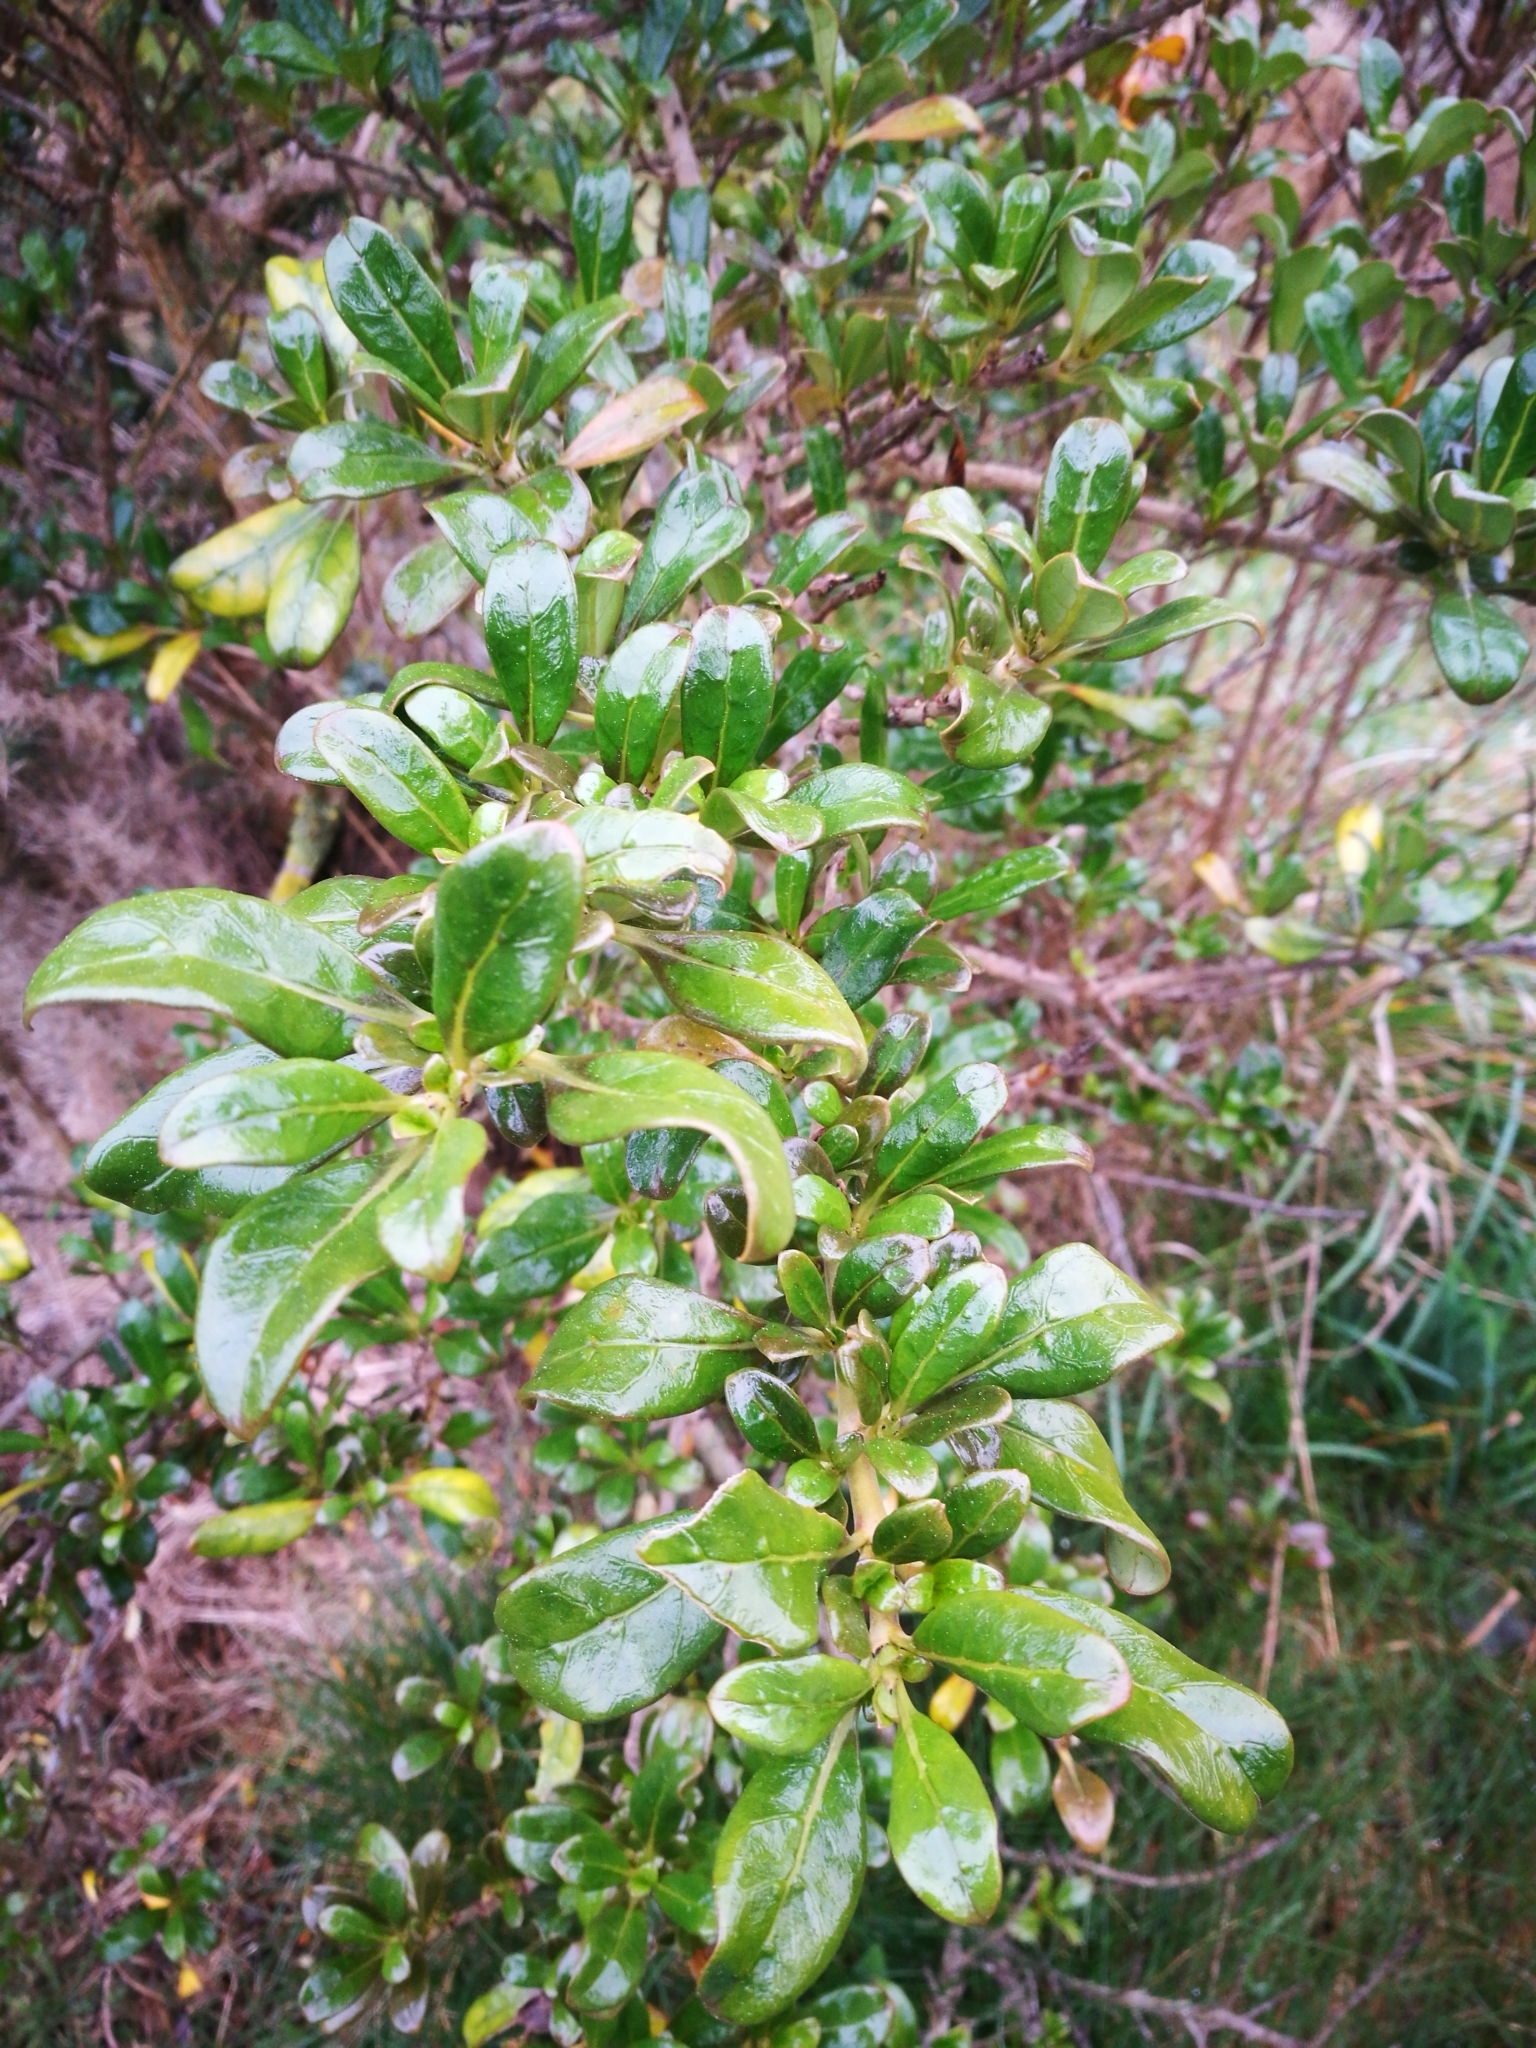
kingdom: Plantae
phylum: Tracheophyta
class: Magnoliopsida
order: Gentianales
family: Rubiaceae
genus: Coprosma
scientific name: Coprosma
